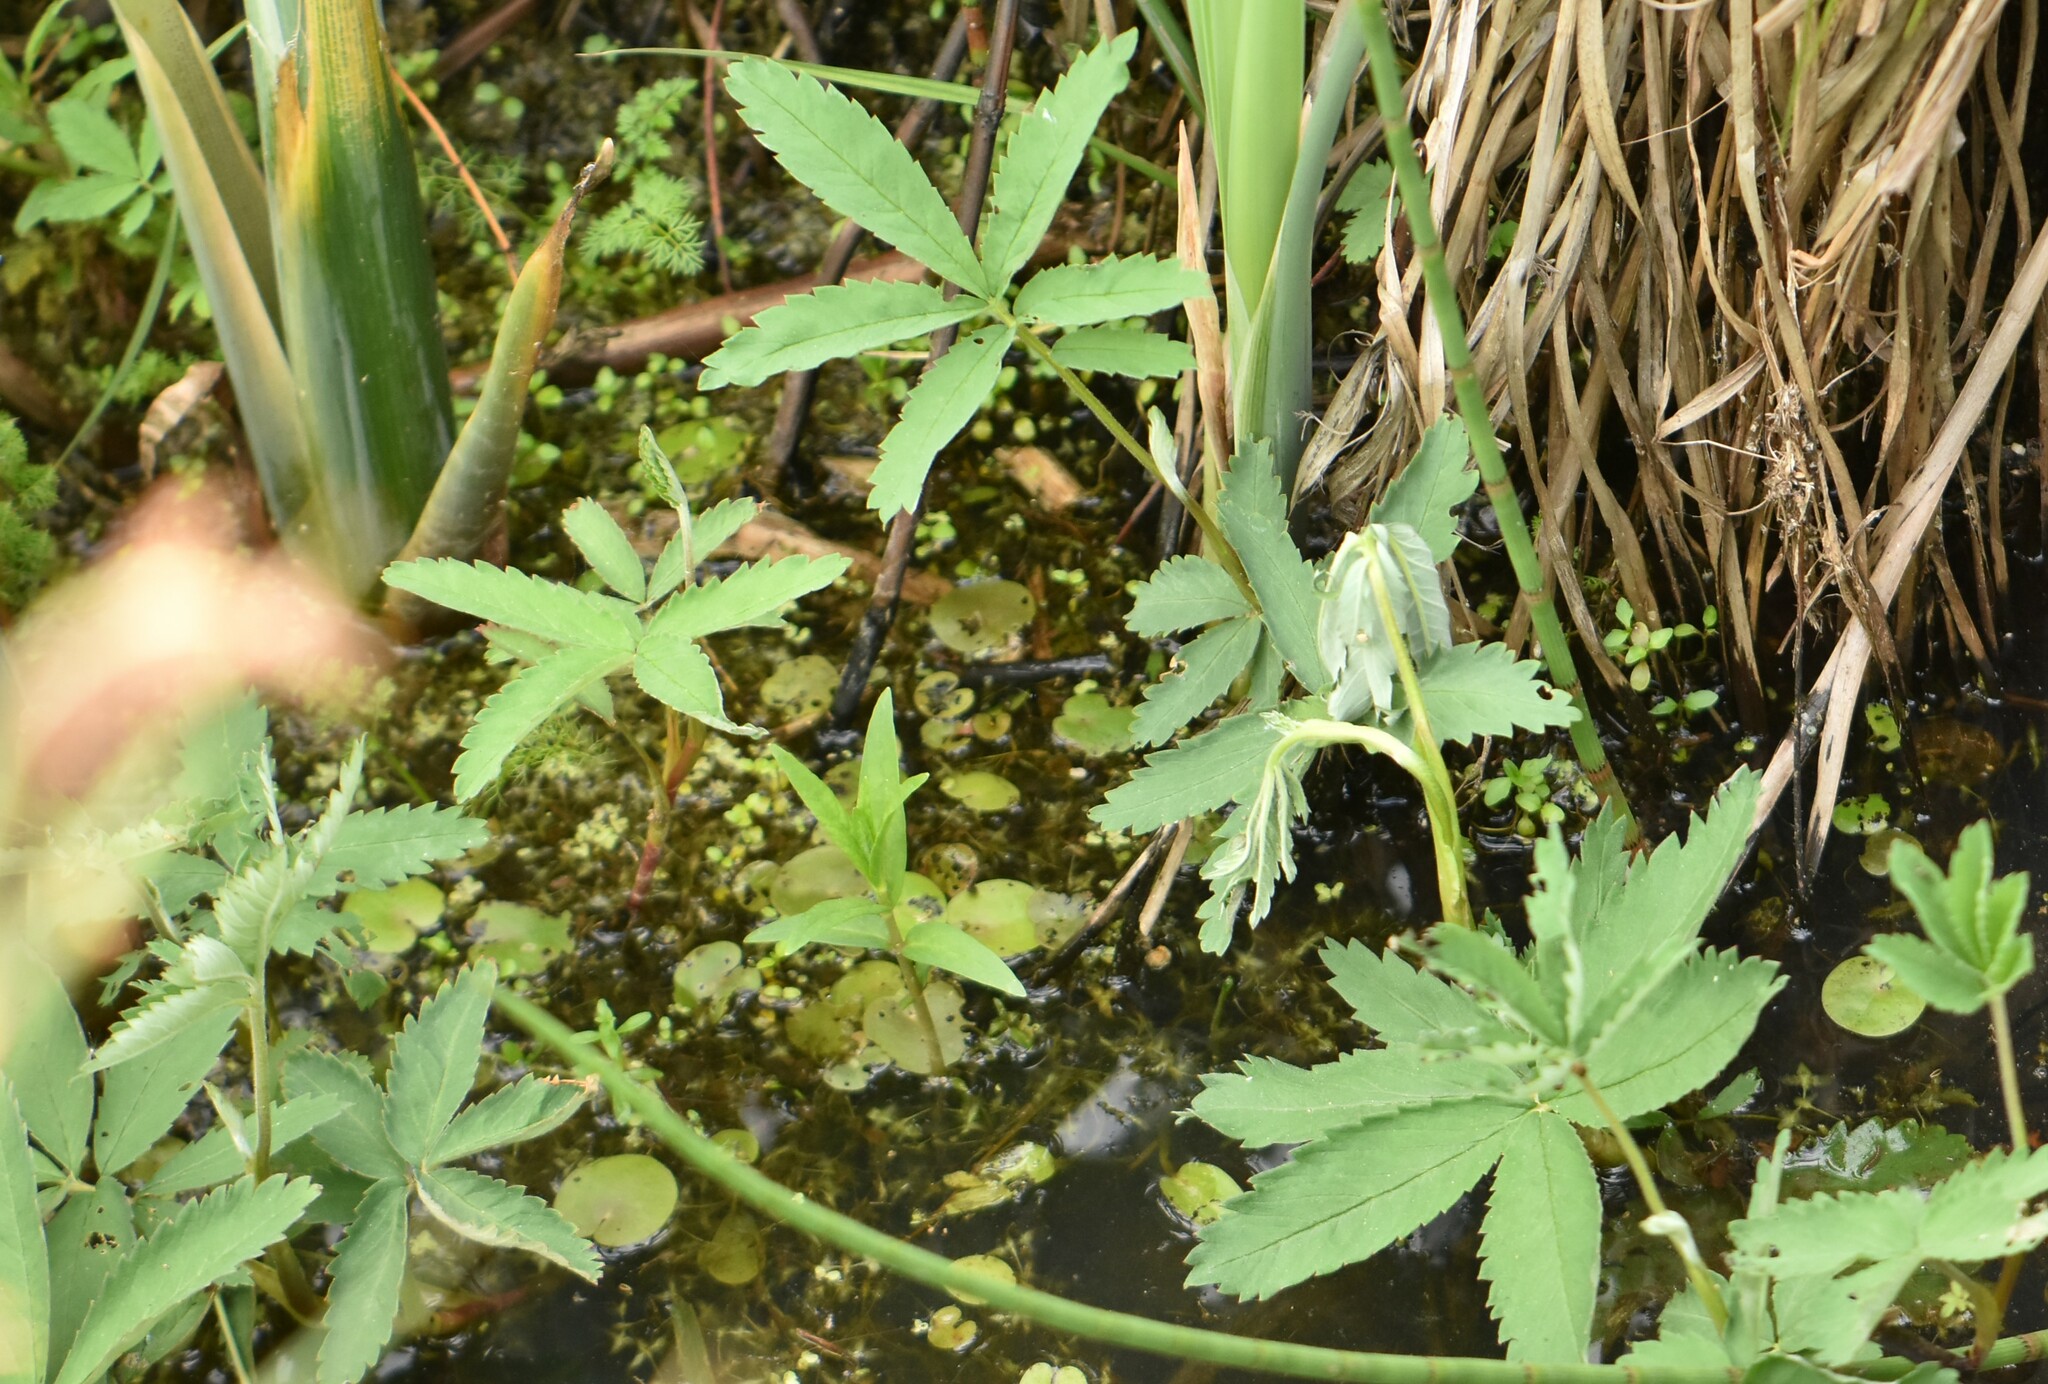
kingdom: Plantae
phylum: Tracheophyta
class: Magnoliopsida
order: Rosales
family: Rosaceae
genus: Comarum
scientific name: Comarum palustre
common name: Marsh cinquefoil
